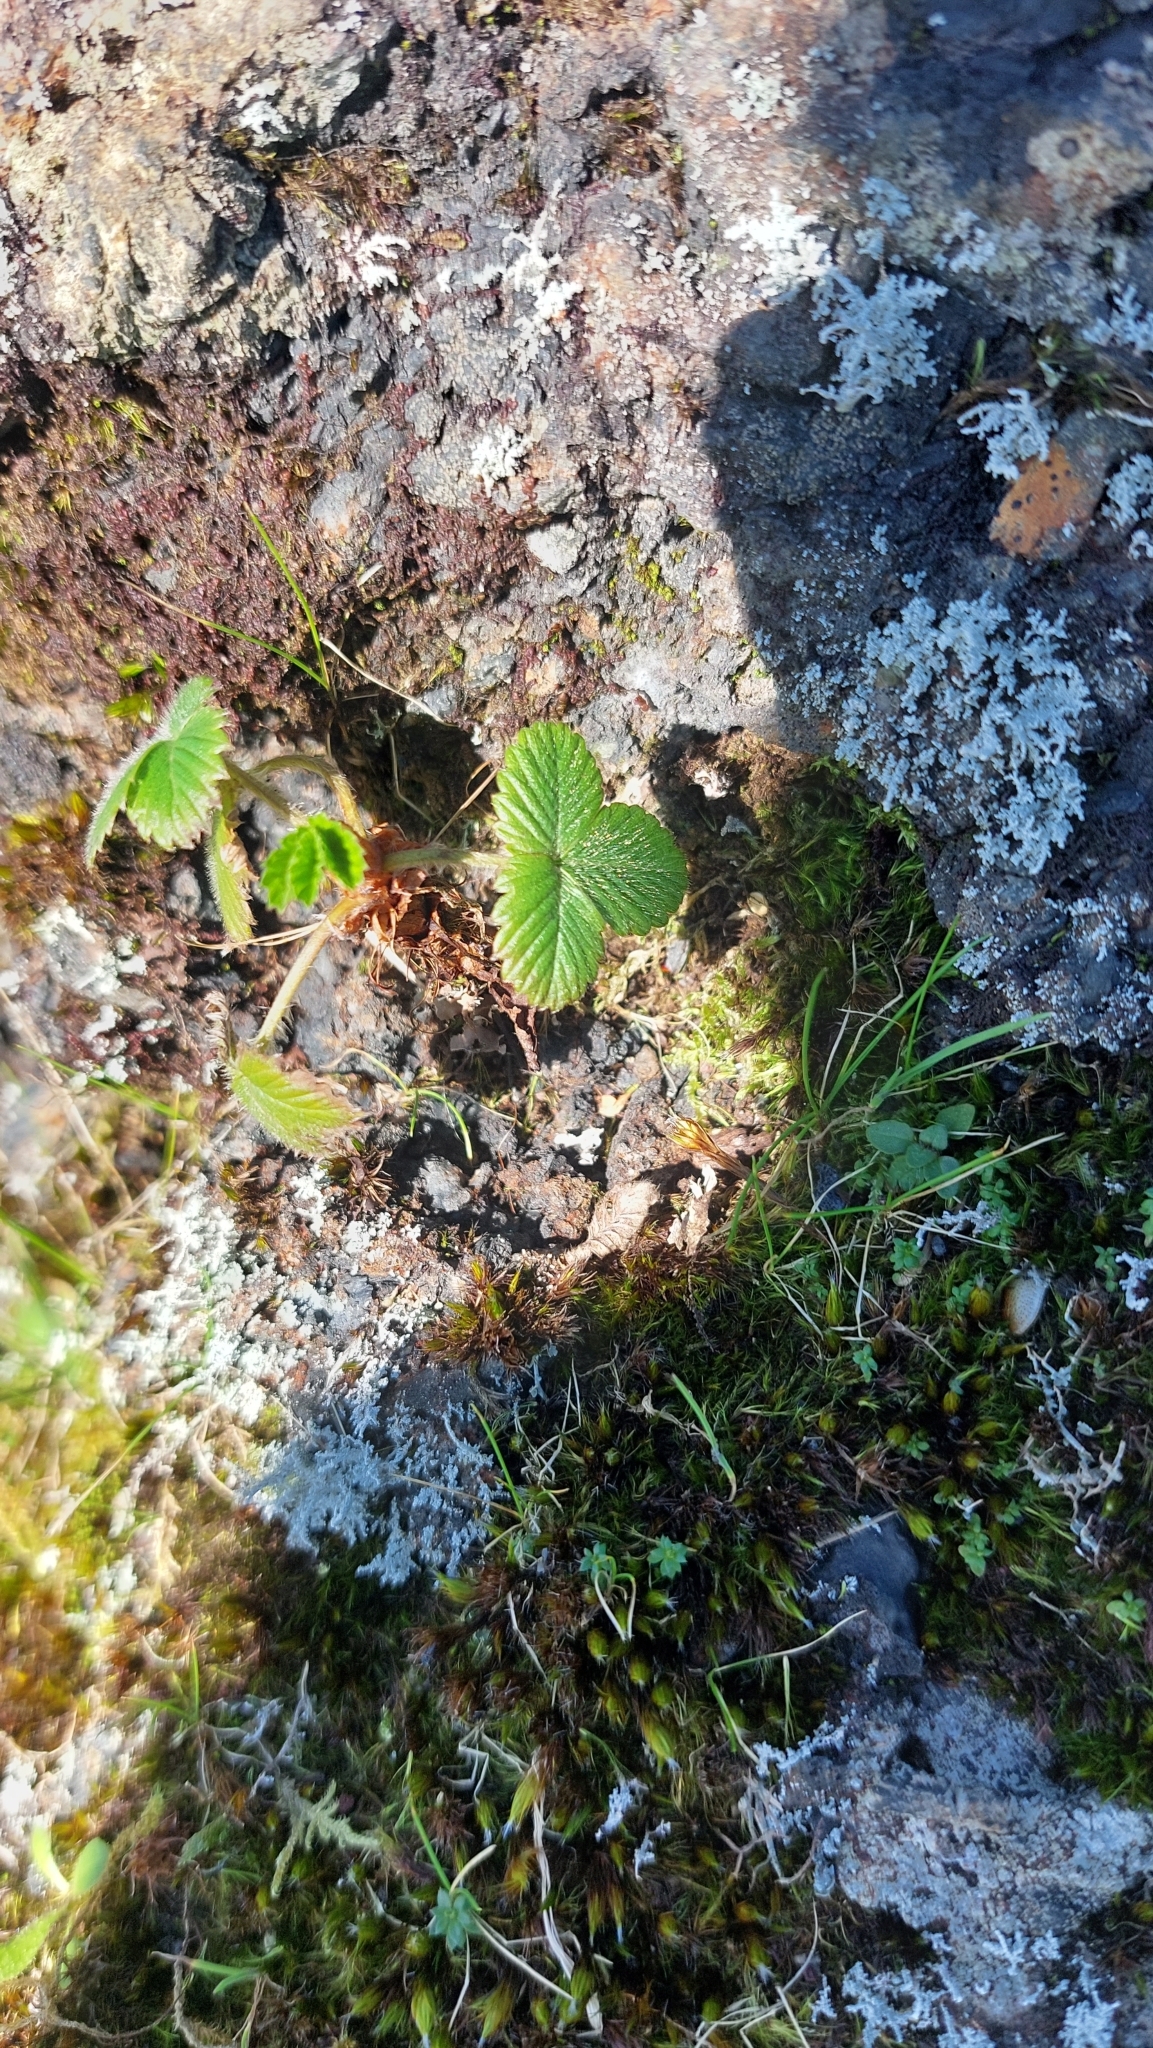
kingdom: Plantae
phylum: Tracheophyta
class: Magnoliopsida
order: Rosales
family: Rosaceae
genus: Fragaria
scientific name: Fragaria vesca
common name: Wild strawberry
